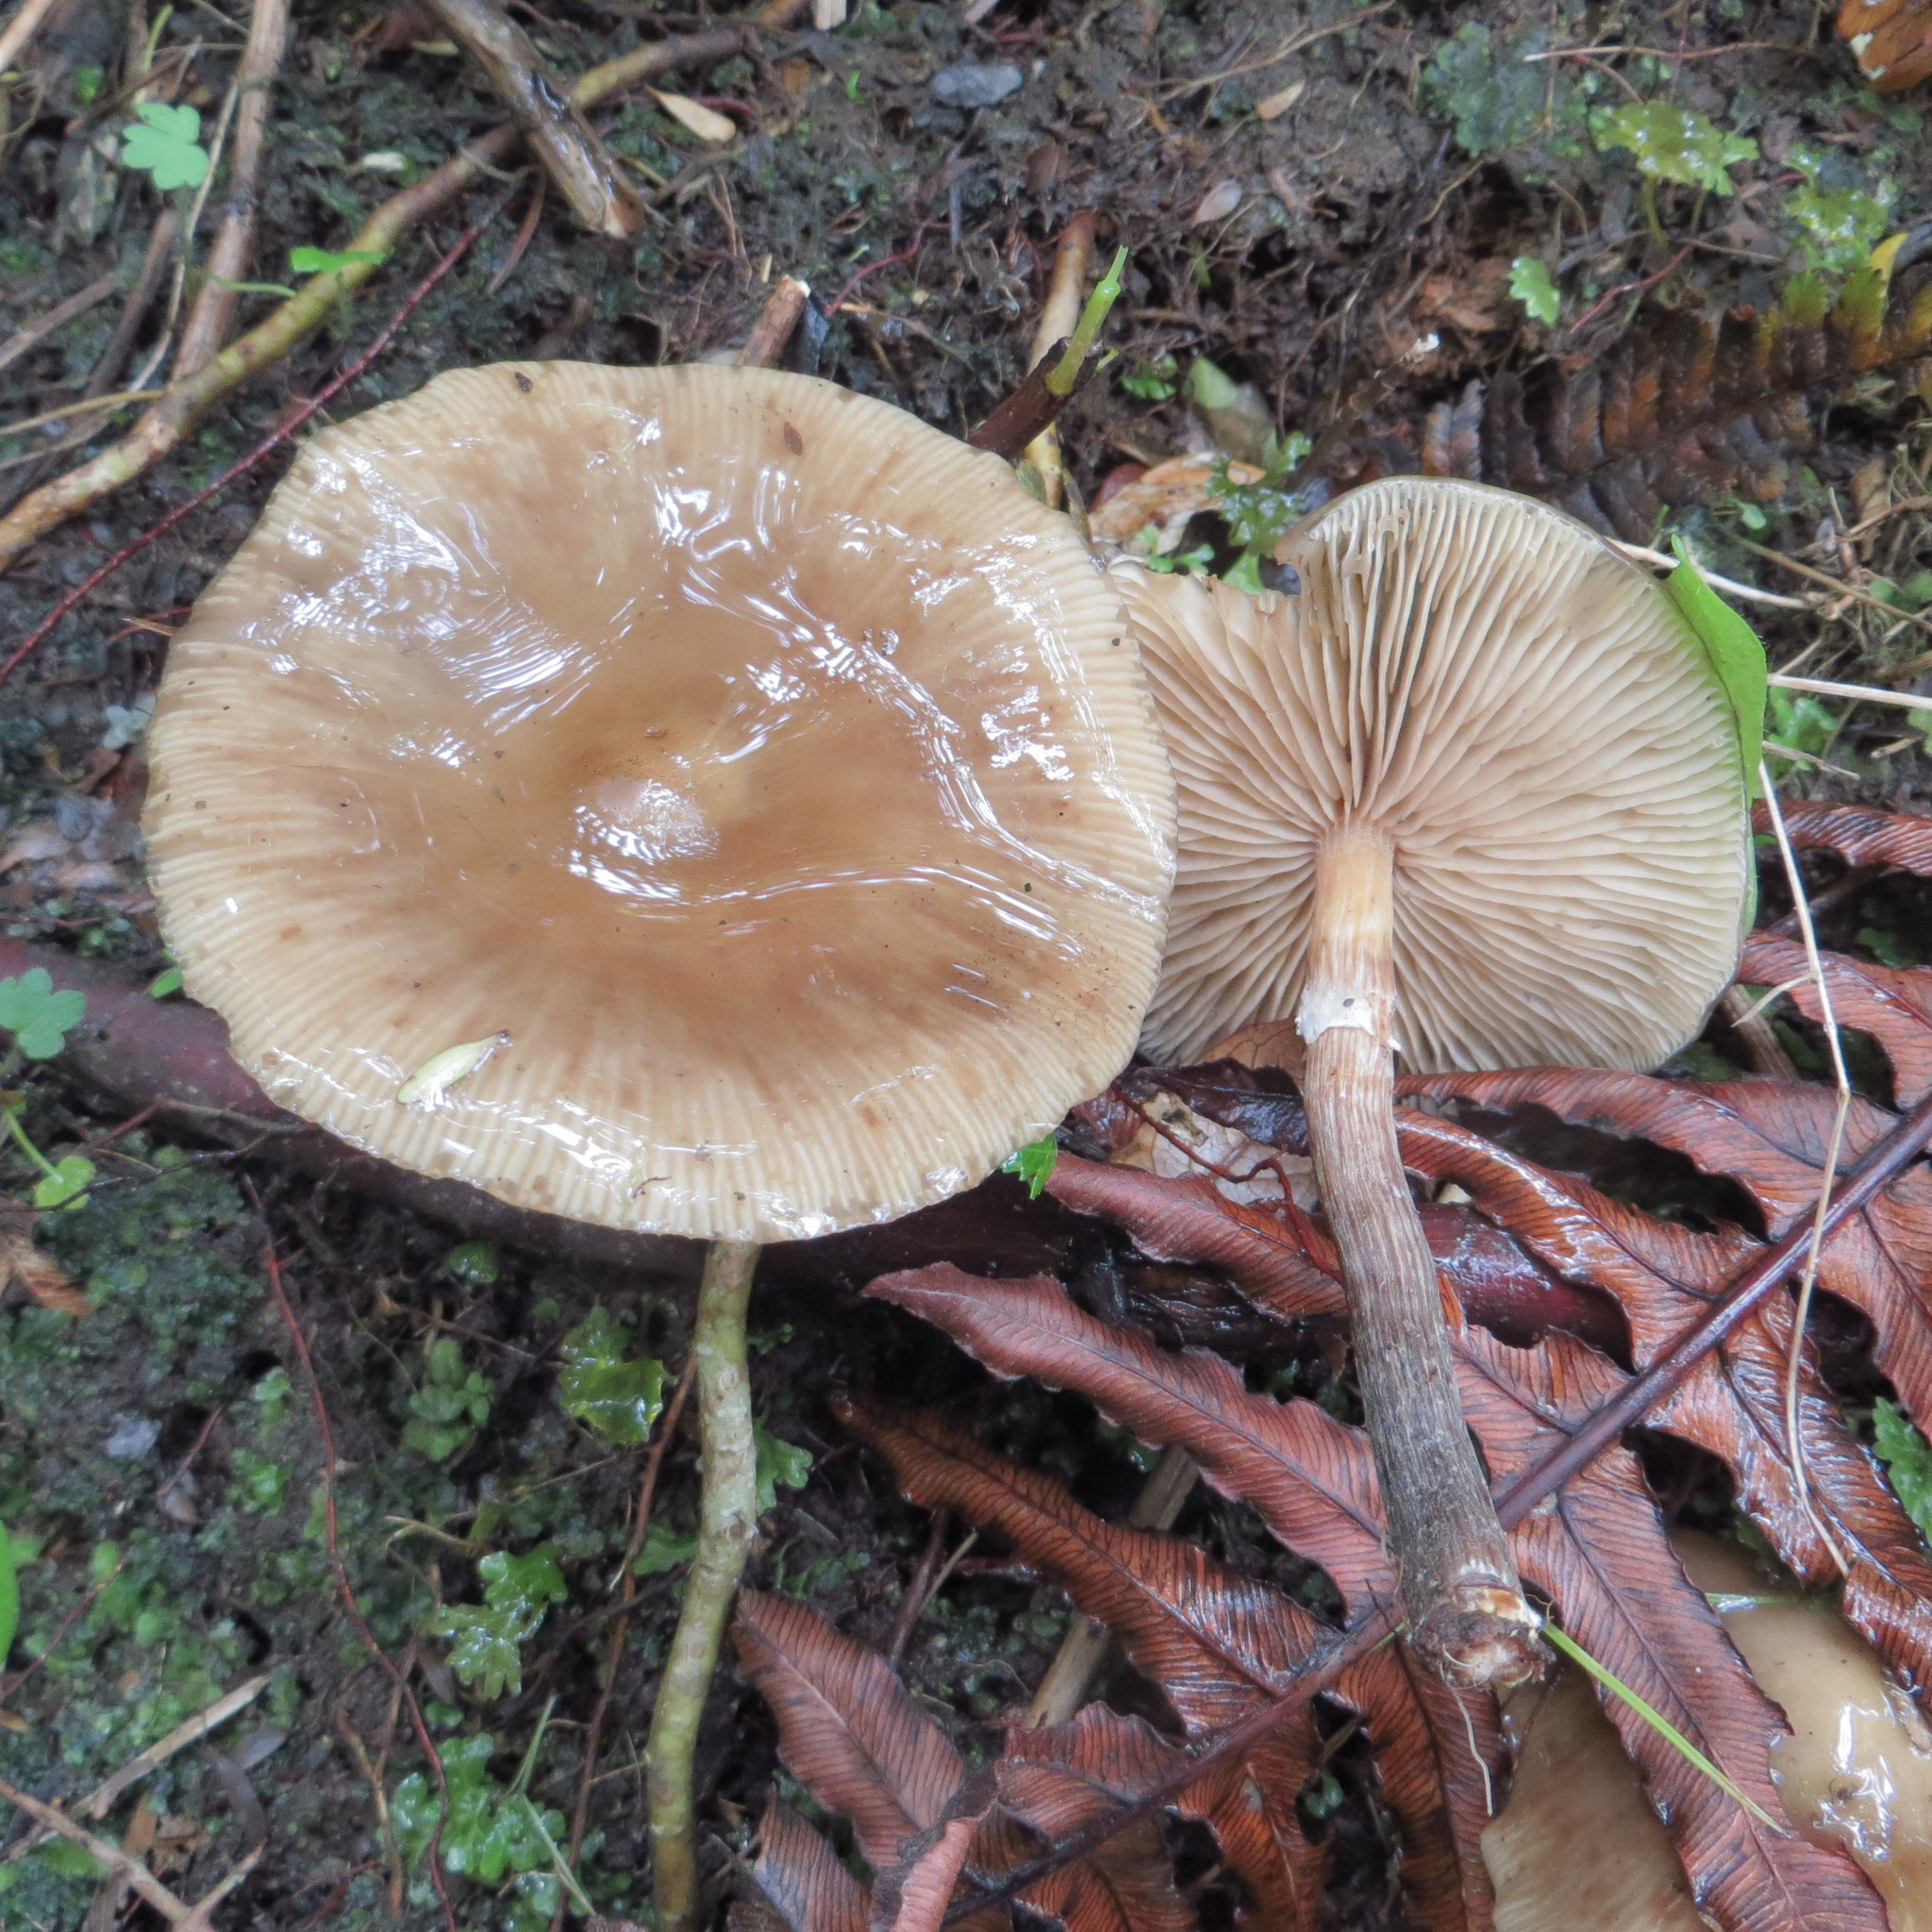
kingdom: Fungi
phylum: Basidiomycota
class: Agaricomycetes
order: Agaricales
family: Physalacriaceae
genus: Armillaria
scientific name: Armillaria novae-zelandiae
